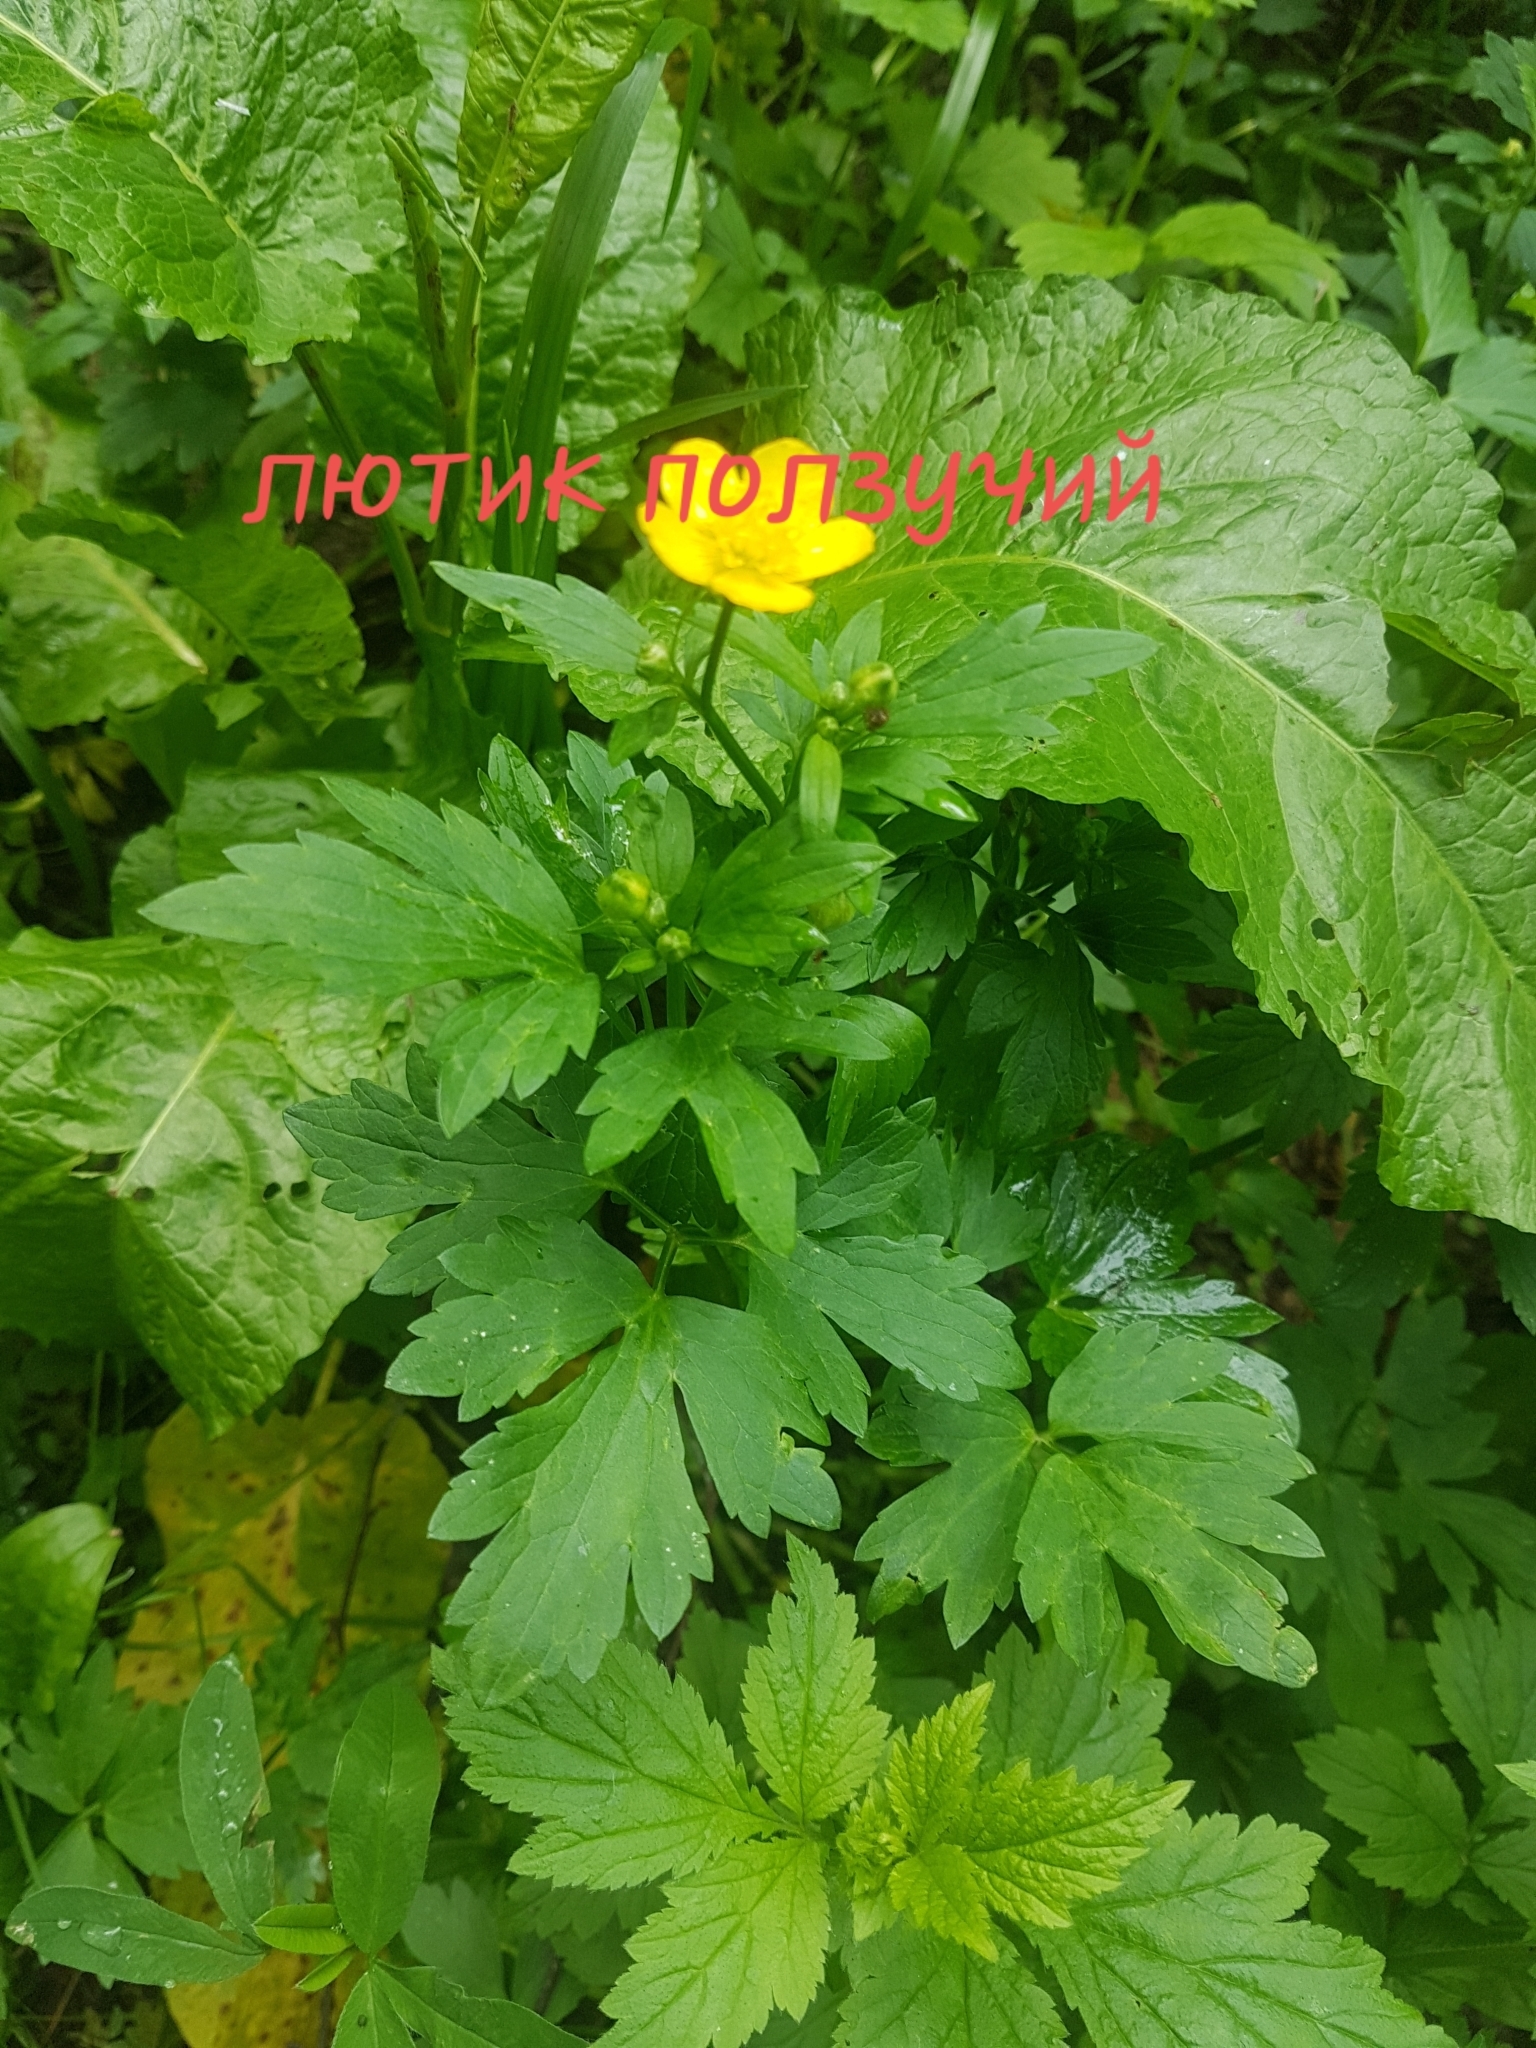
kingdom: Plantae
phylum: Tracheophyta
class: Magnoliopsida
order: Ranunculales
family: Ranunculaceae
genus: Ranunculus
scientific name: Ranunculus repens
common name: Creeping buttercup
